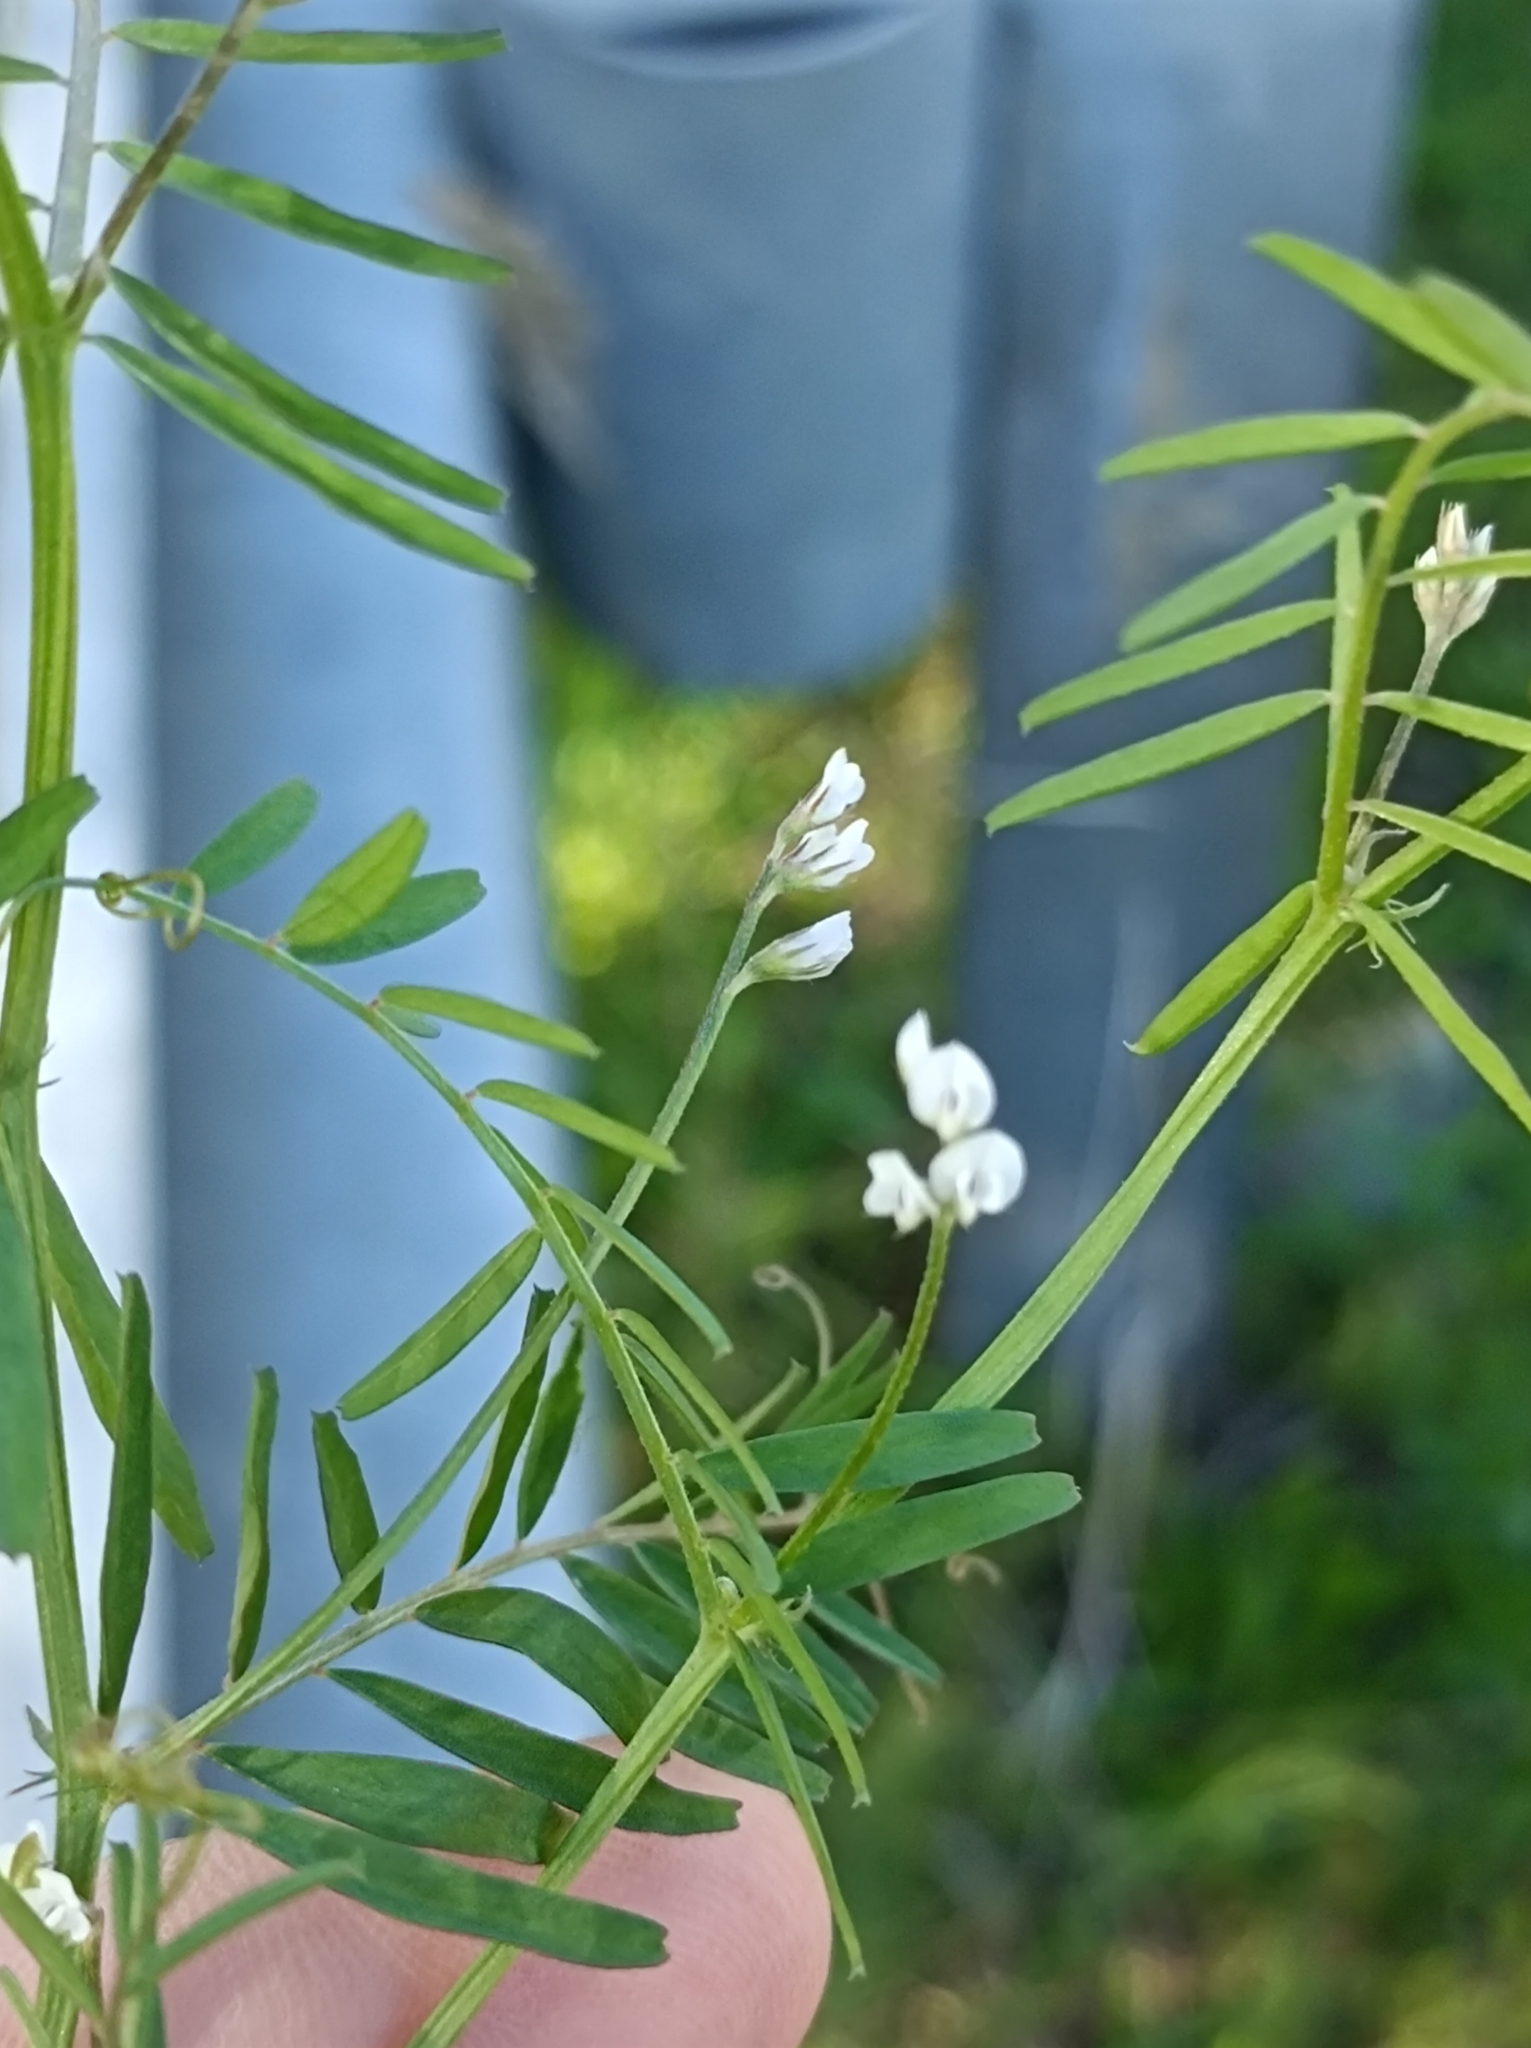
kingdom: Plantae
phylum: Tracheophyta
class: Magnoliopsida
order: Fabales
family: Fabaceae
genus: Vicia
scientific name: Vicia tetrasperma
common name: Smooth tare
